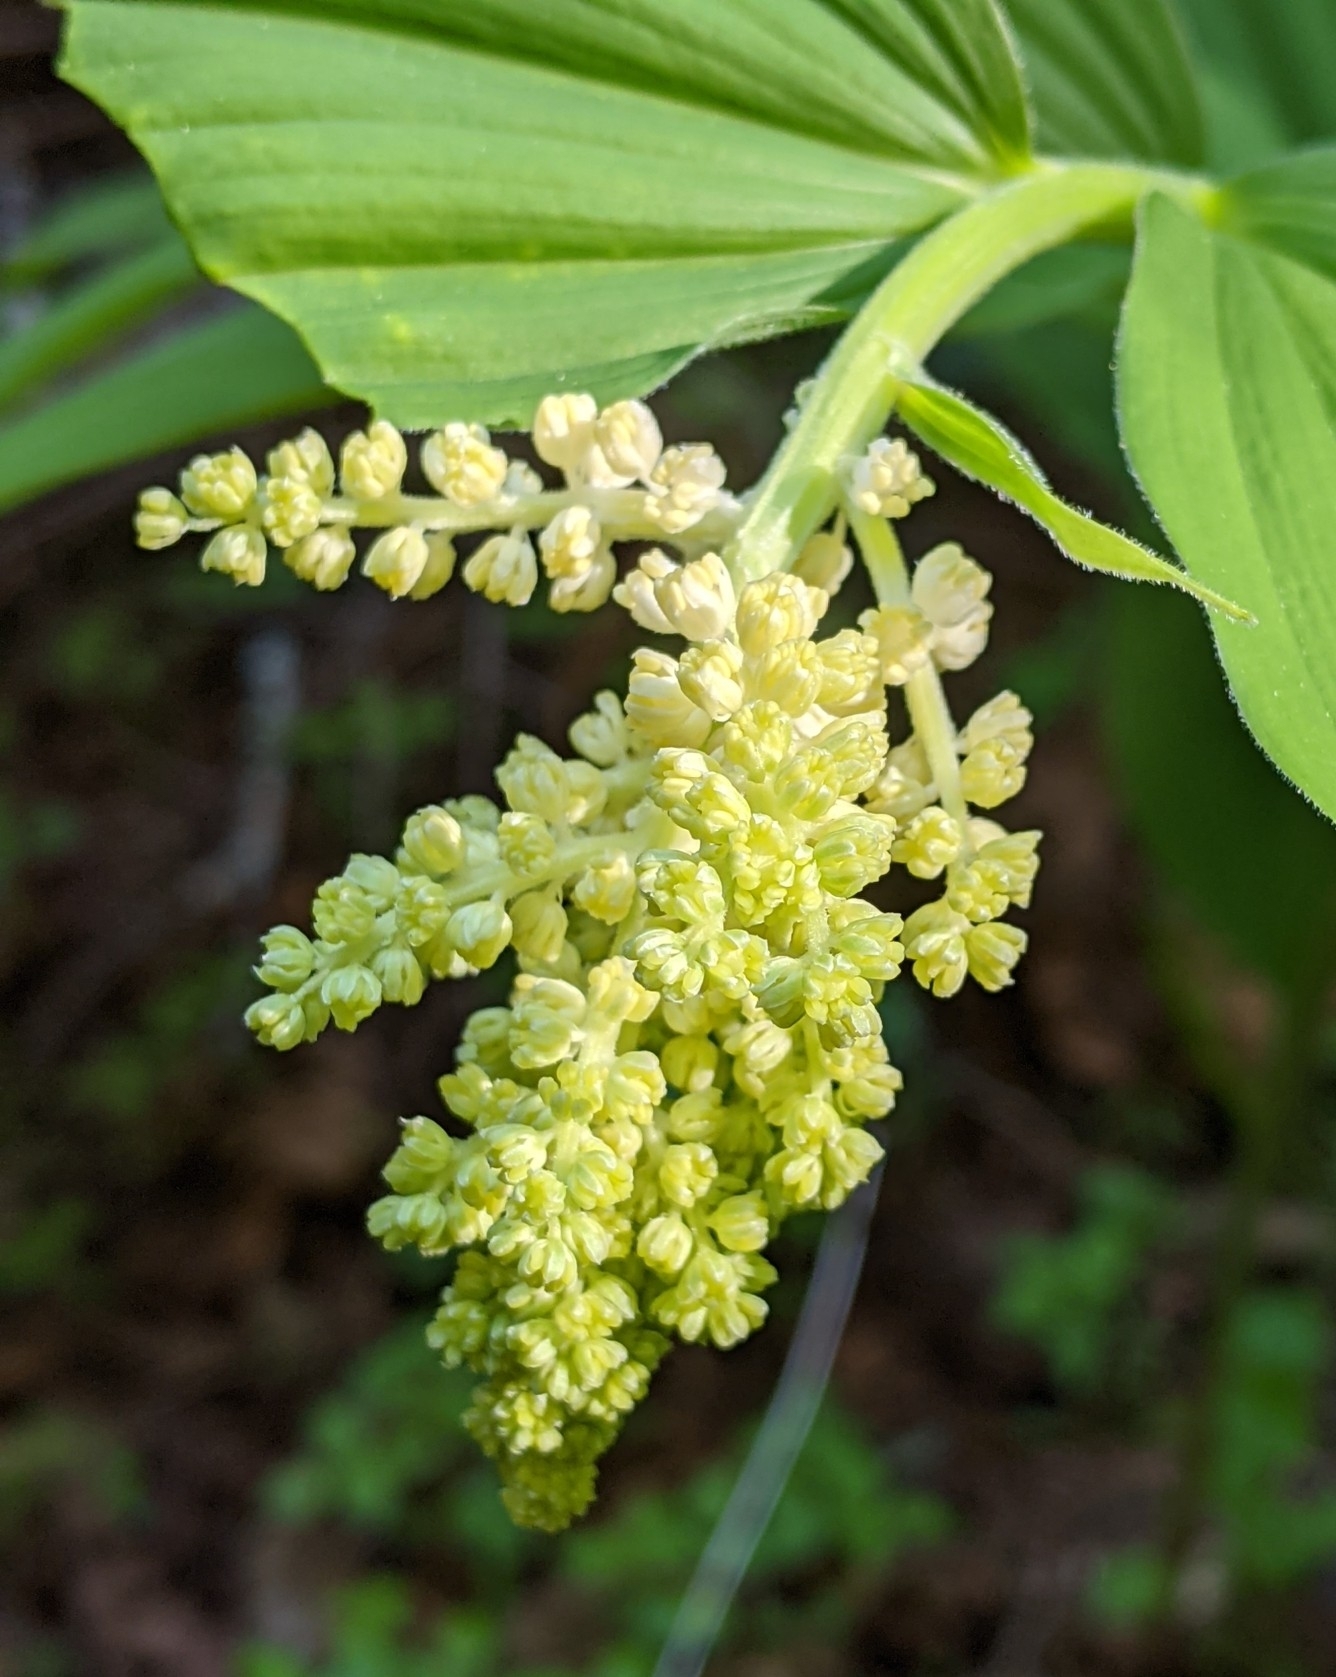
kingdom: Plantae
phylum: Tracheophyta
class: Liliopsida
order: Asparagales
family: Asparagaceae
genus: Maianthemum
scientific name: Maianthemum racemosum
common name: False spikenard
